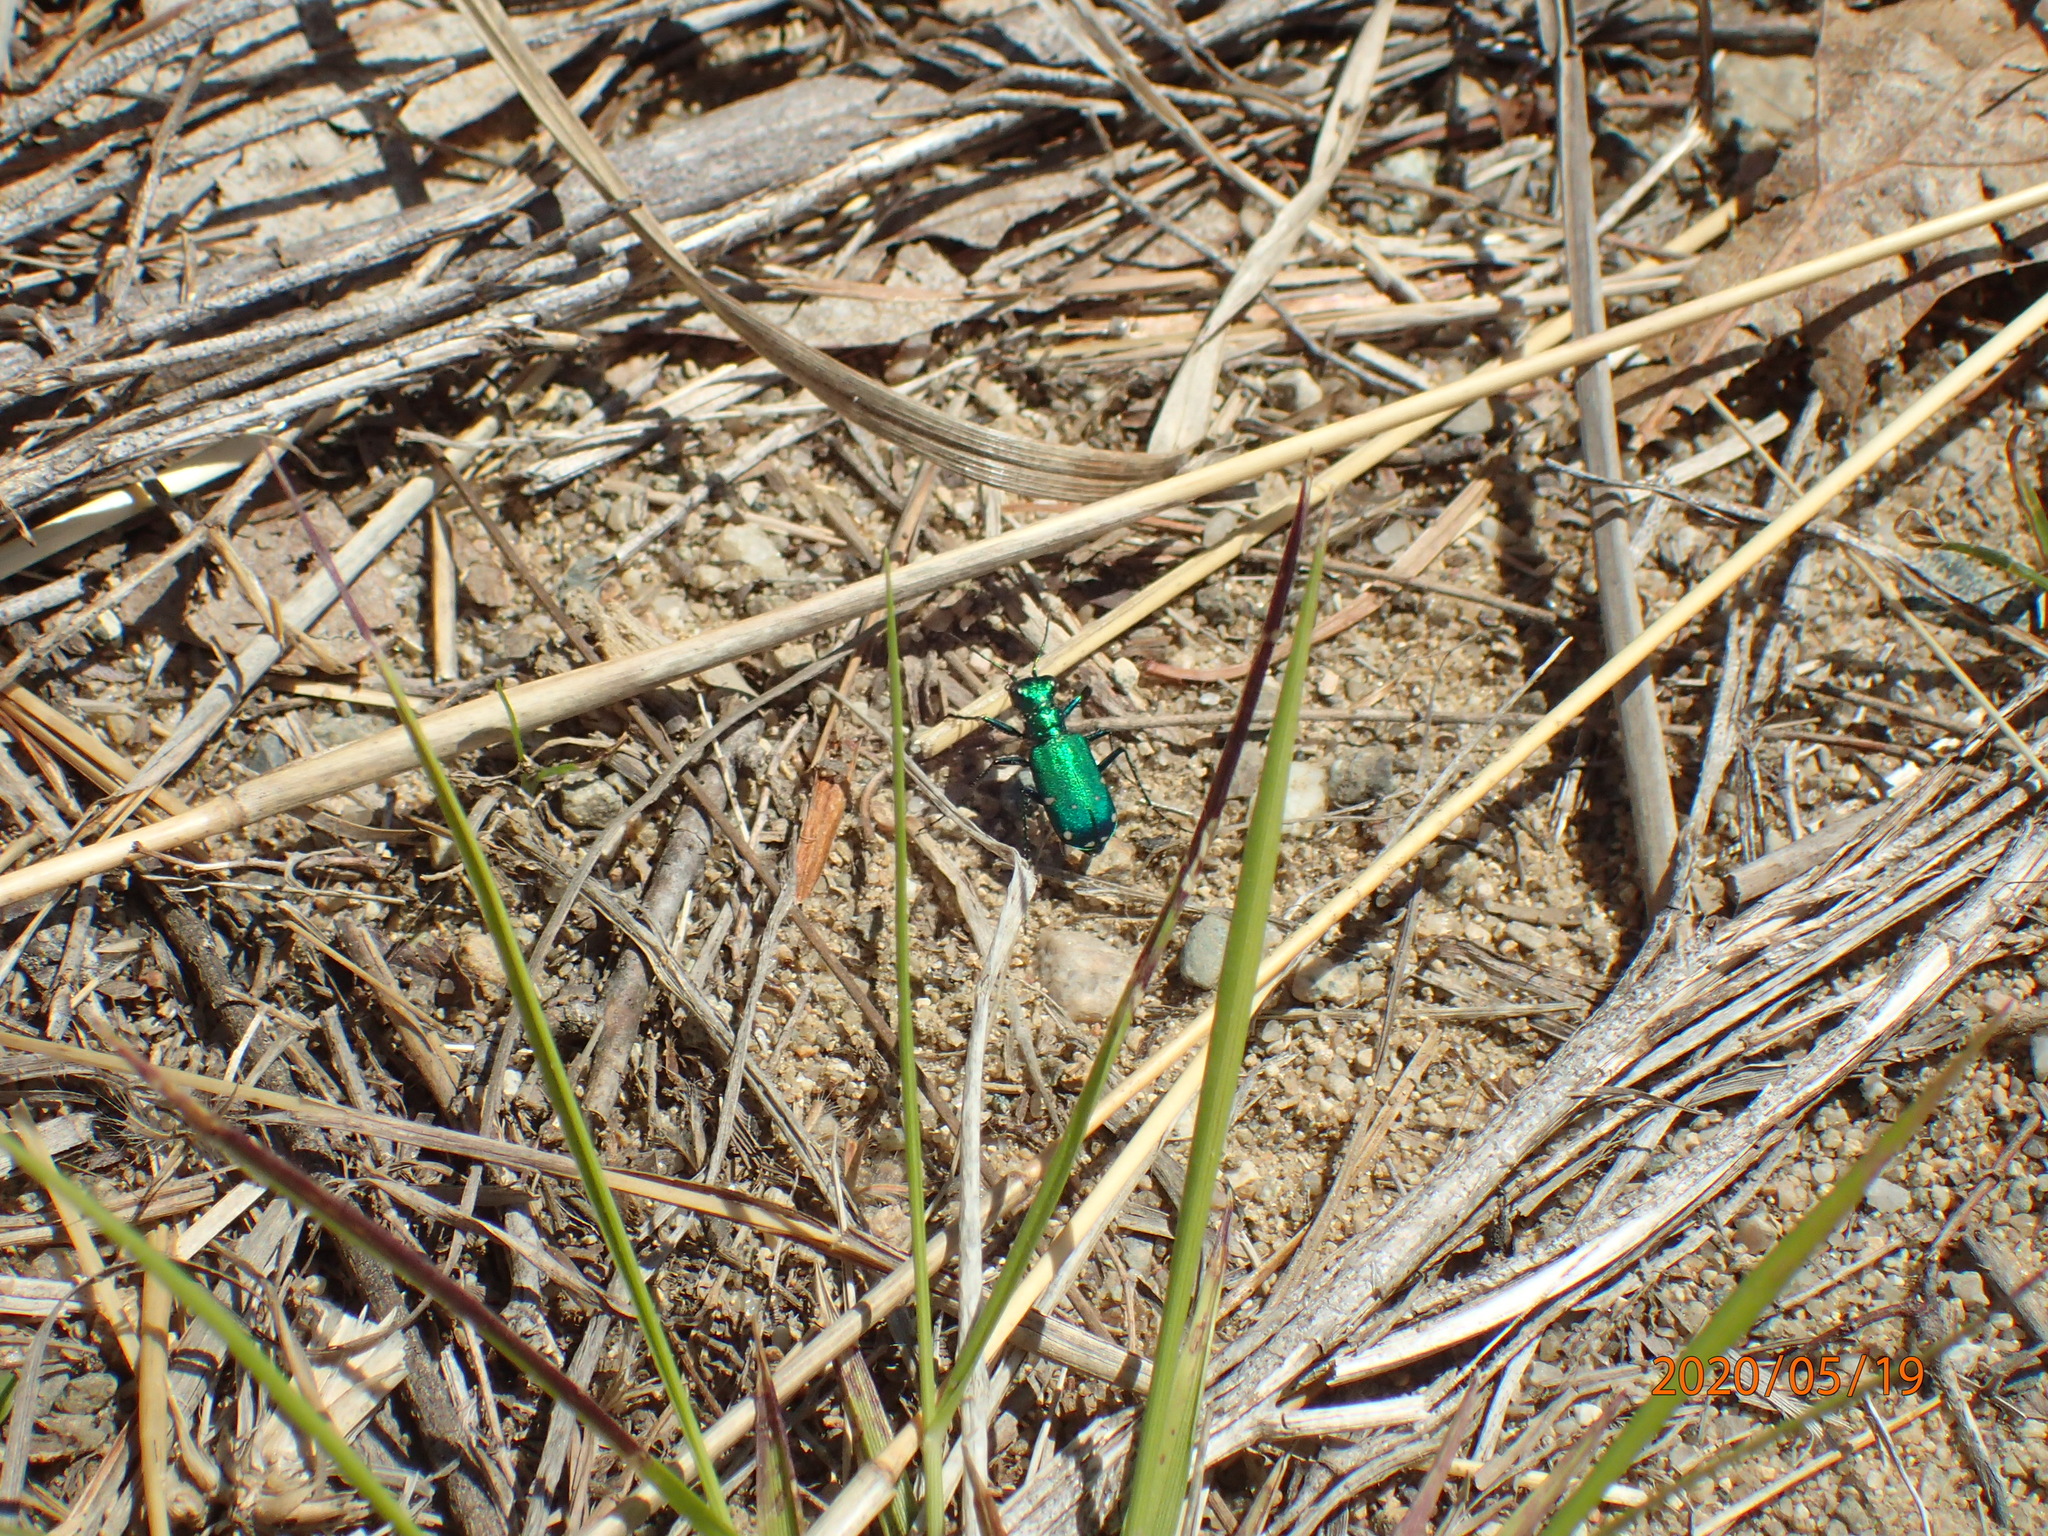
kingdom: Animalia
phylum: Arthropoda
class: Insecta
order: Coleoptera
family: Carabidae
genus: Cicindela
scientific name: Cicindela sexguttata
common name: Six-spotted tiger beetle
